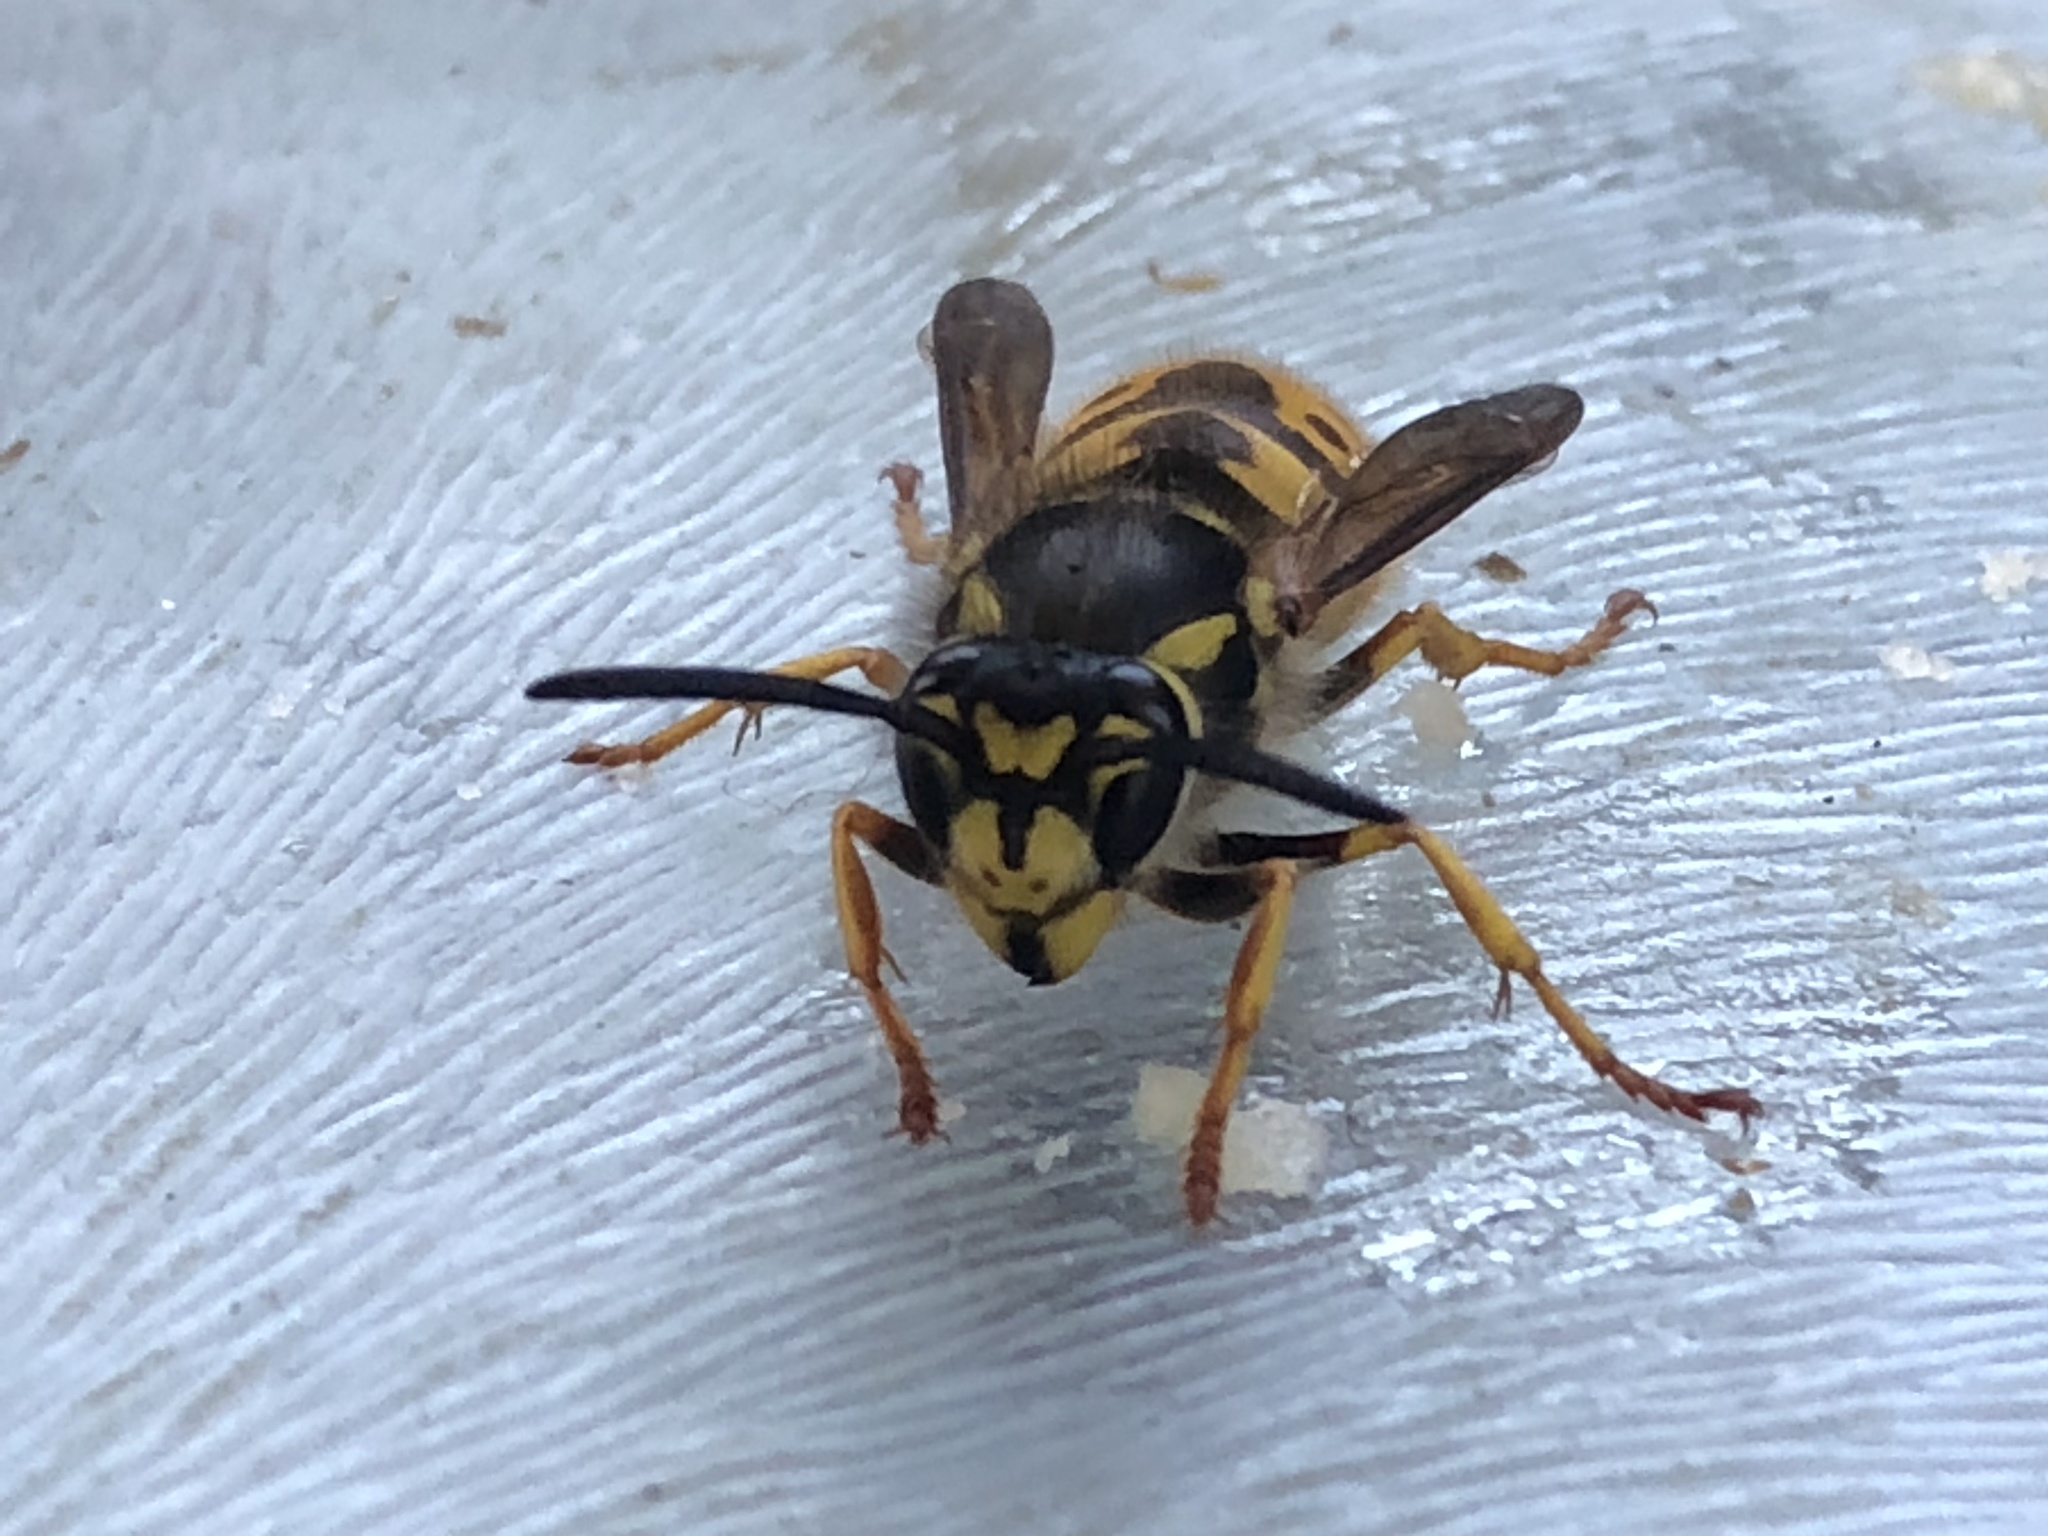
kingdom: Animalia
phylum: Arthropoda
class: Insecta
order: Hymenoptera
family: Vespidae
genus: Vespula
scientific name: Vespula germanica
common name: German wasp
